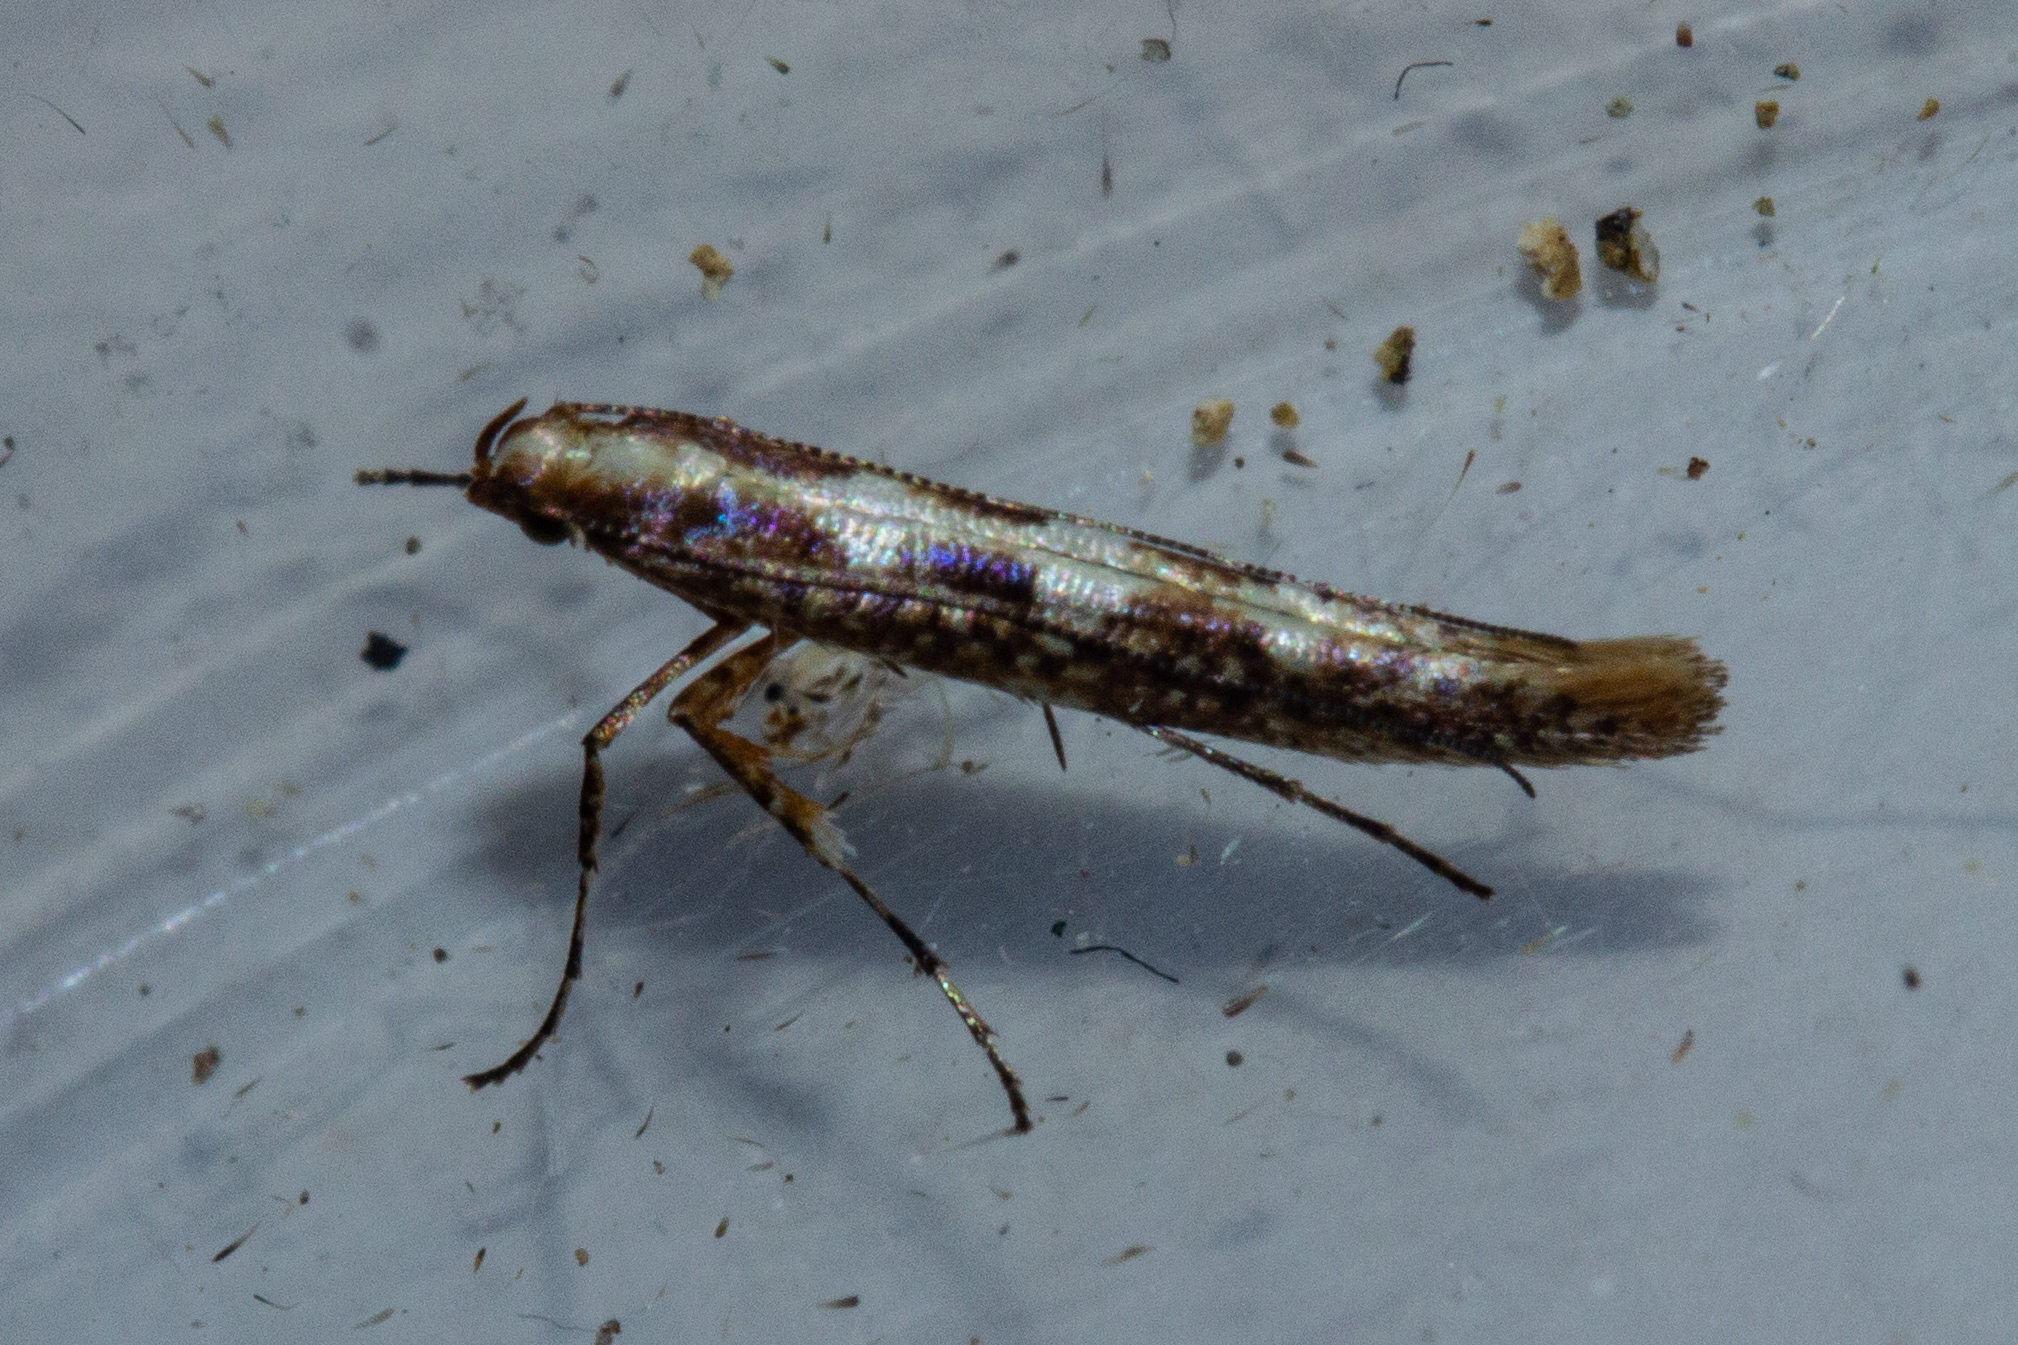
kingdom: Animalia
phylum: Arthropoda
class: Insecta
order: Lepidoptera
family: Gracillariidae
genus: Caloptilia
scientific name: Caloptilia selenitis
